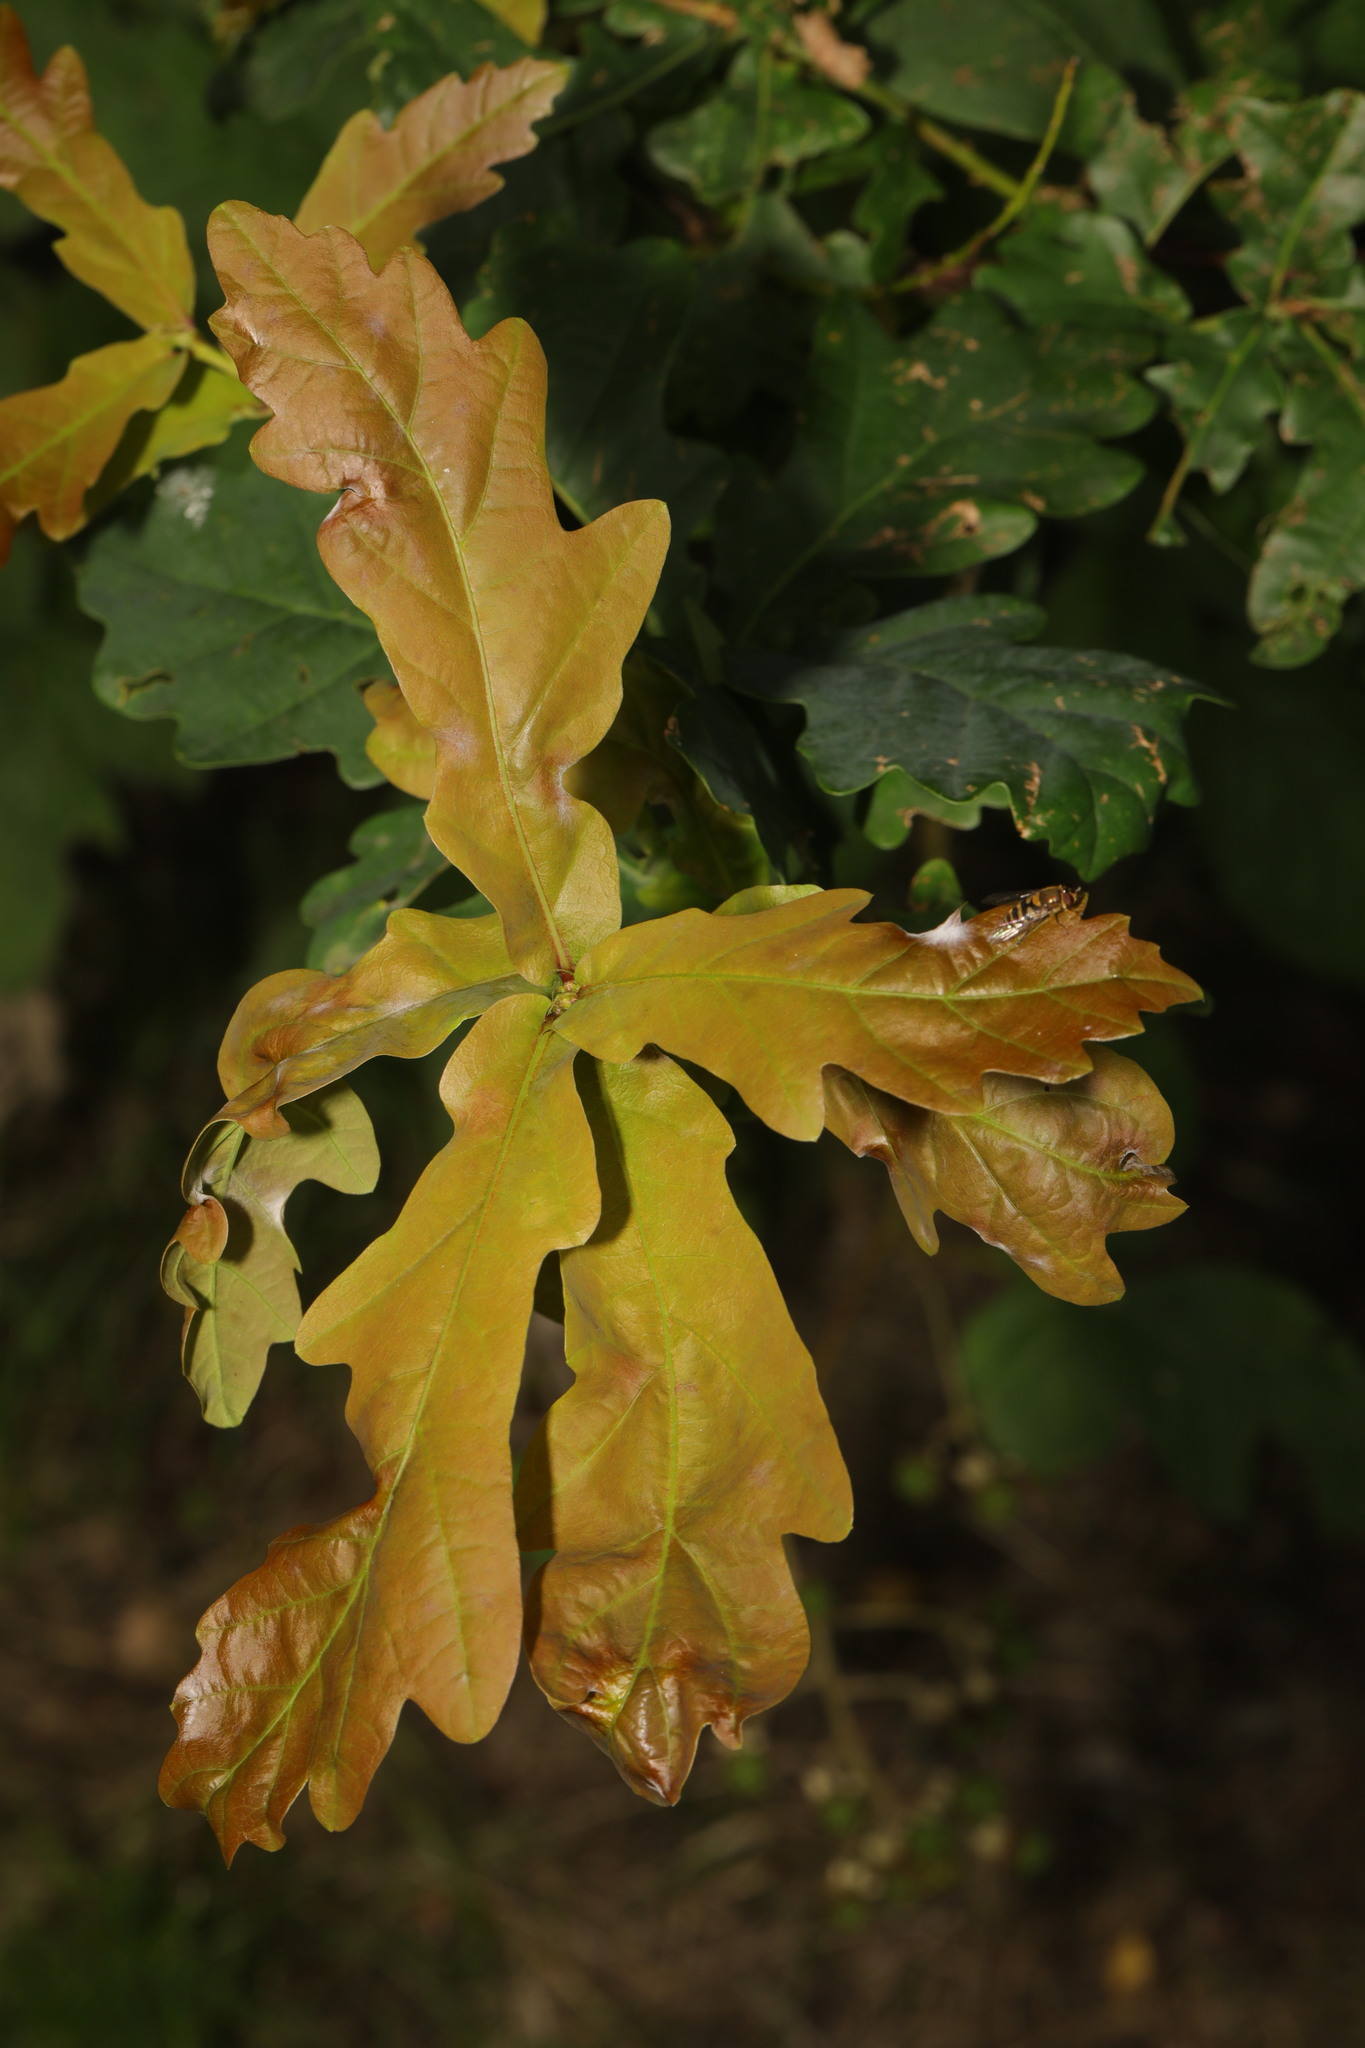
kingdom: Plantae
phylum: Tracheophyta
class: Magnoliopsida
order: Fagales
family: Fagaceae
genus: Quercus
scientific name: Quercus robur
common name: Pedunculate oak
